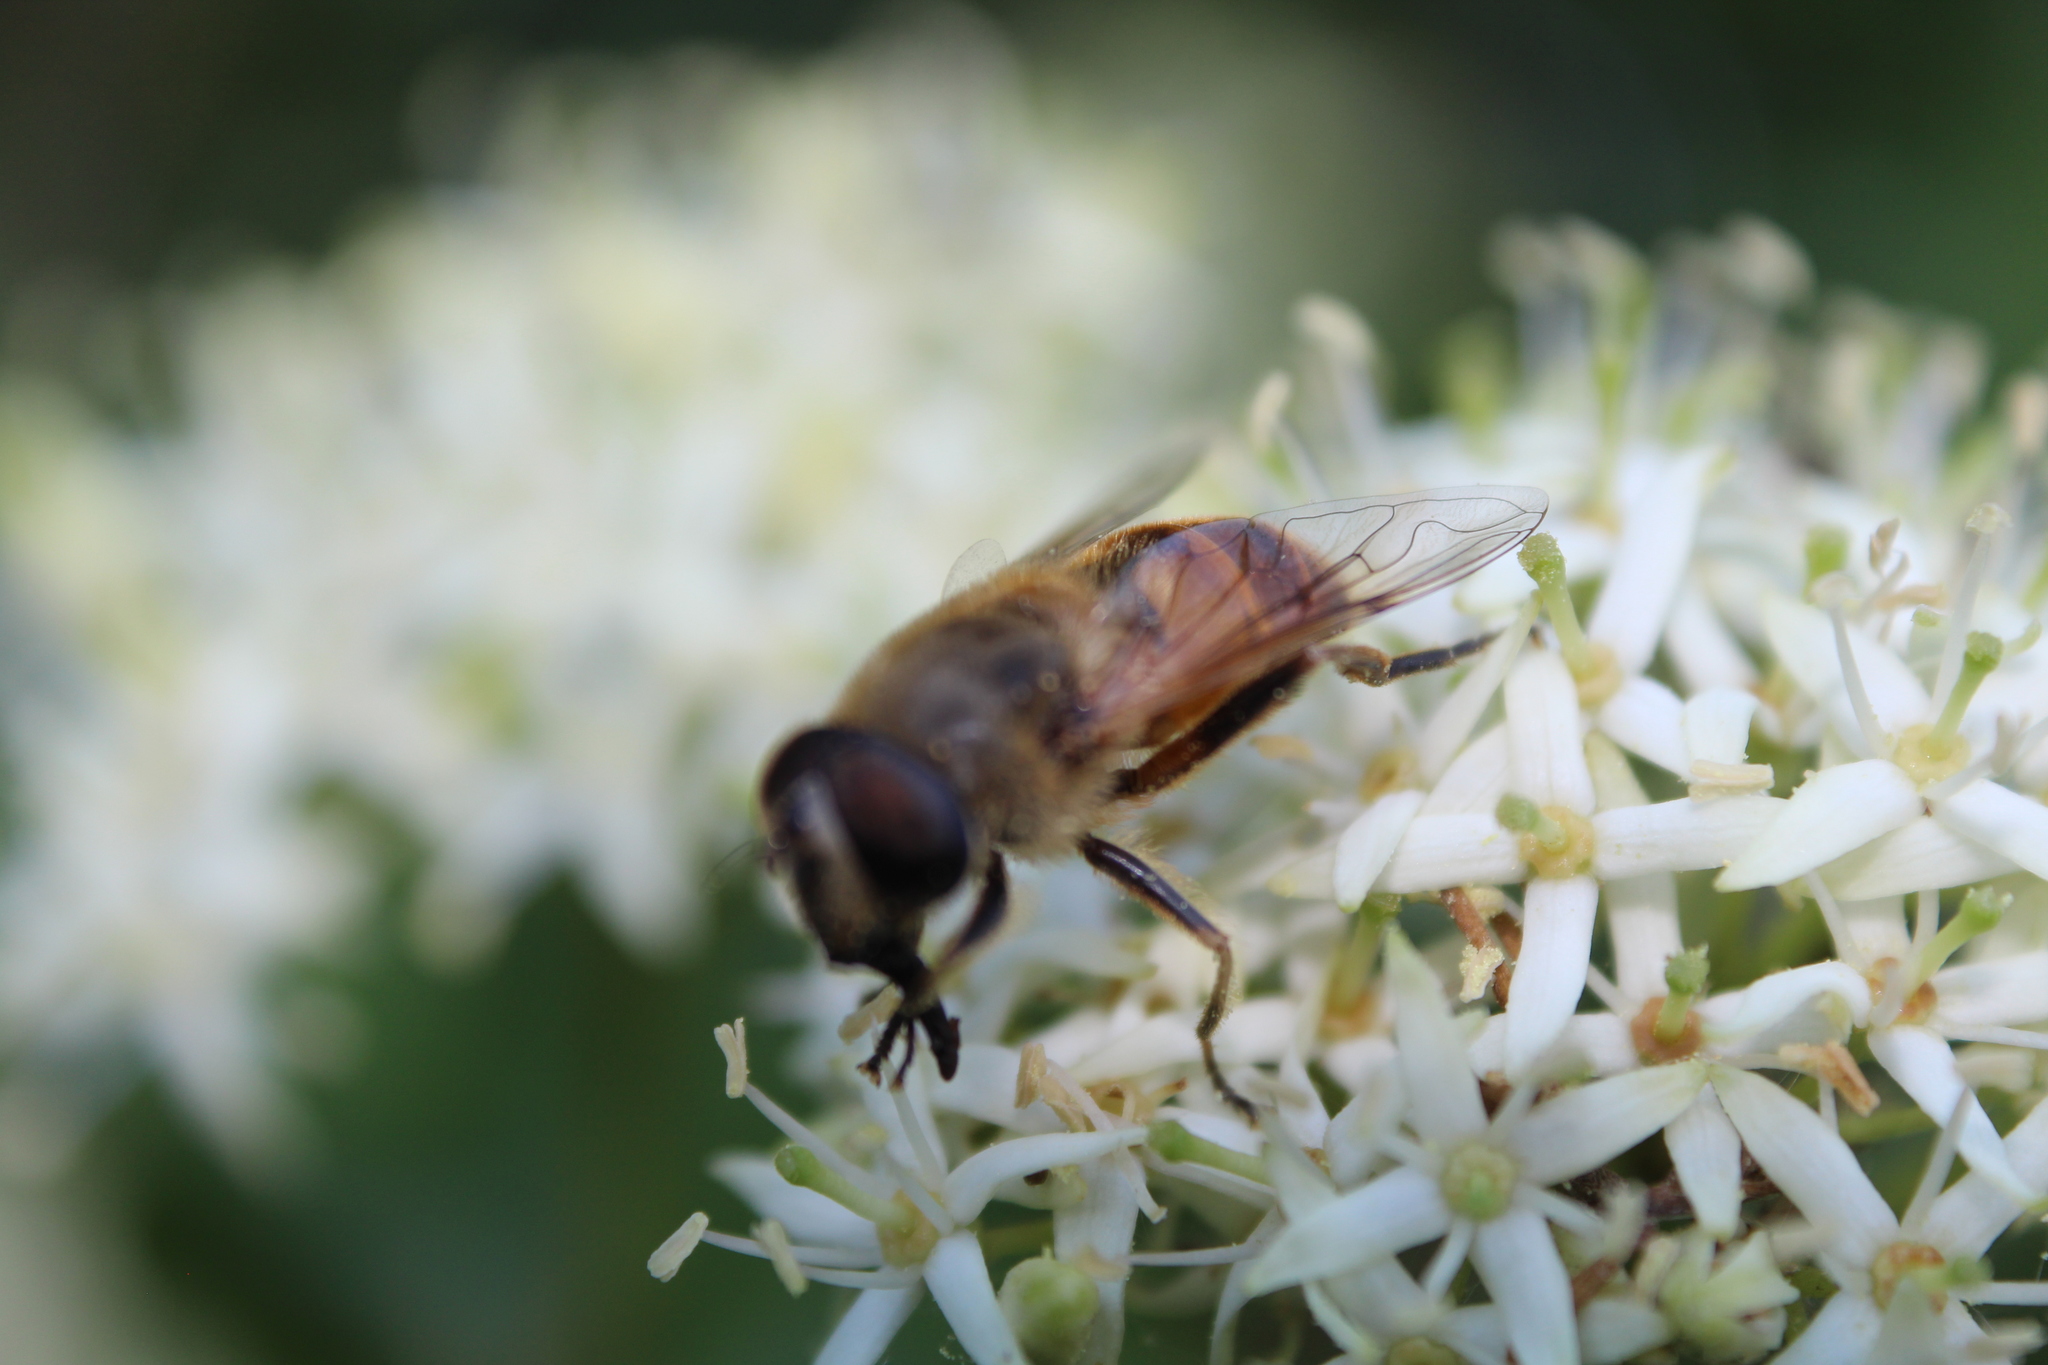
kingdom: Animalia
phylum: Arthropoda
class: Insecta
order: Diptera
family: Syrphidae
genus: Eristalis
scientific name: Eristalis tenax
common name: Drone fly
